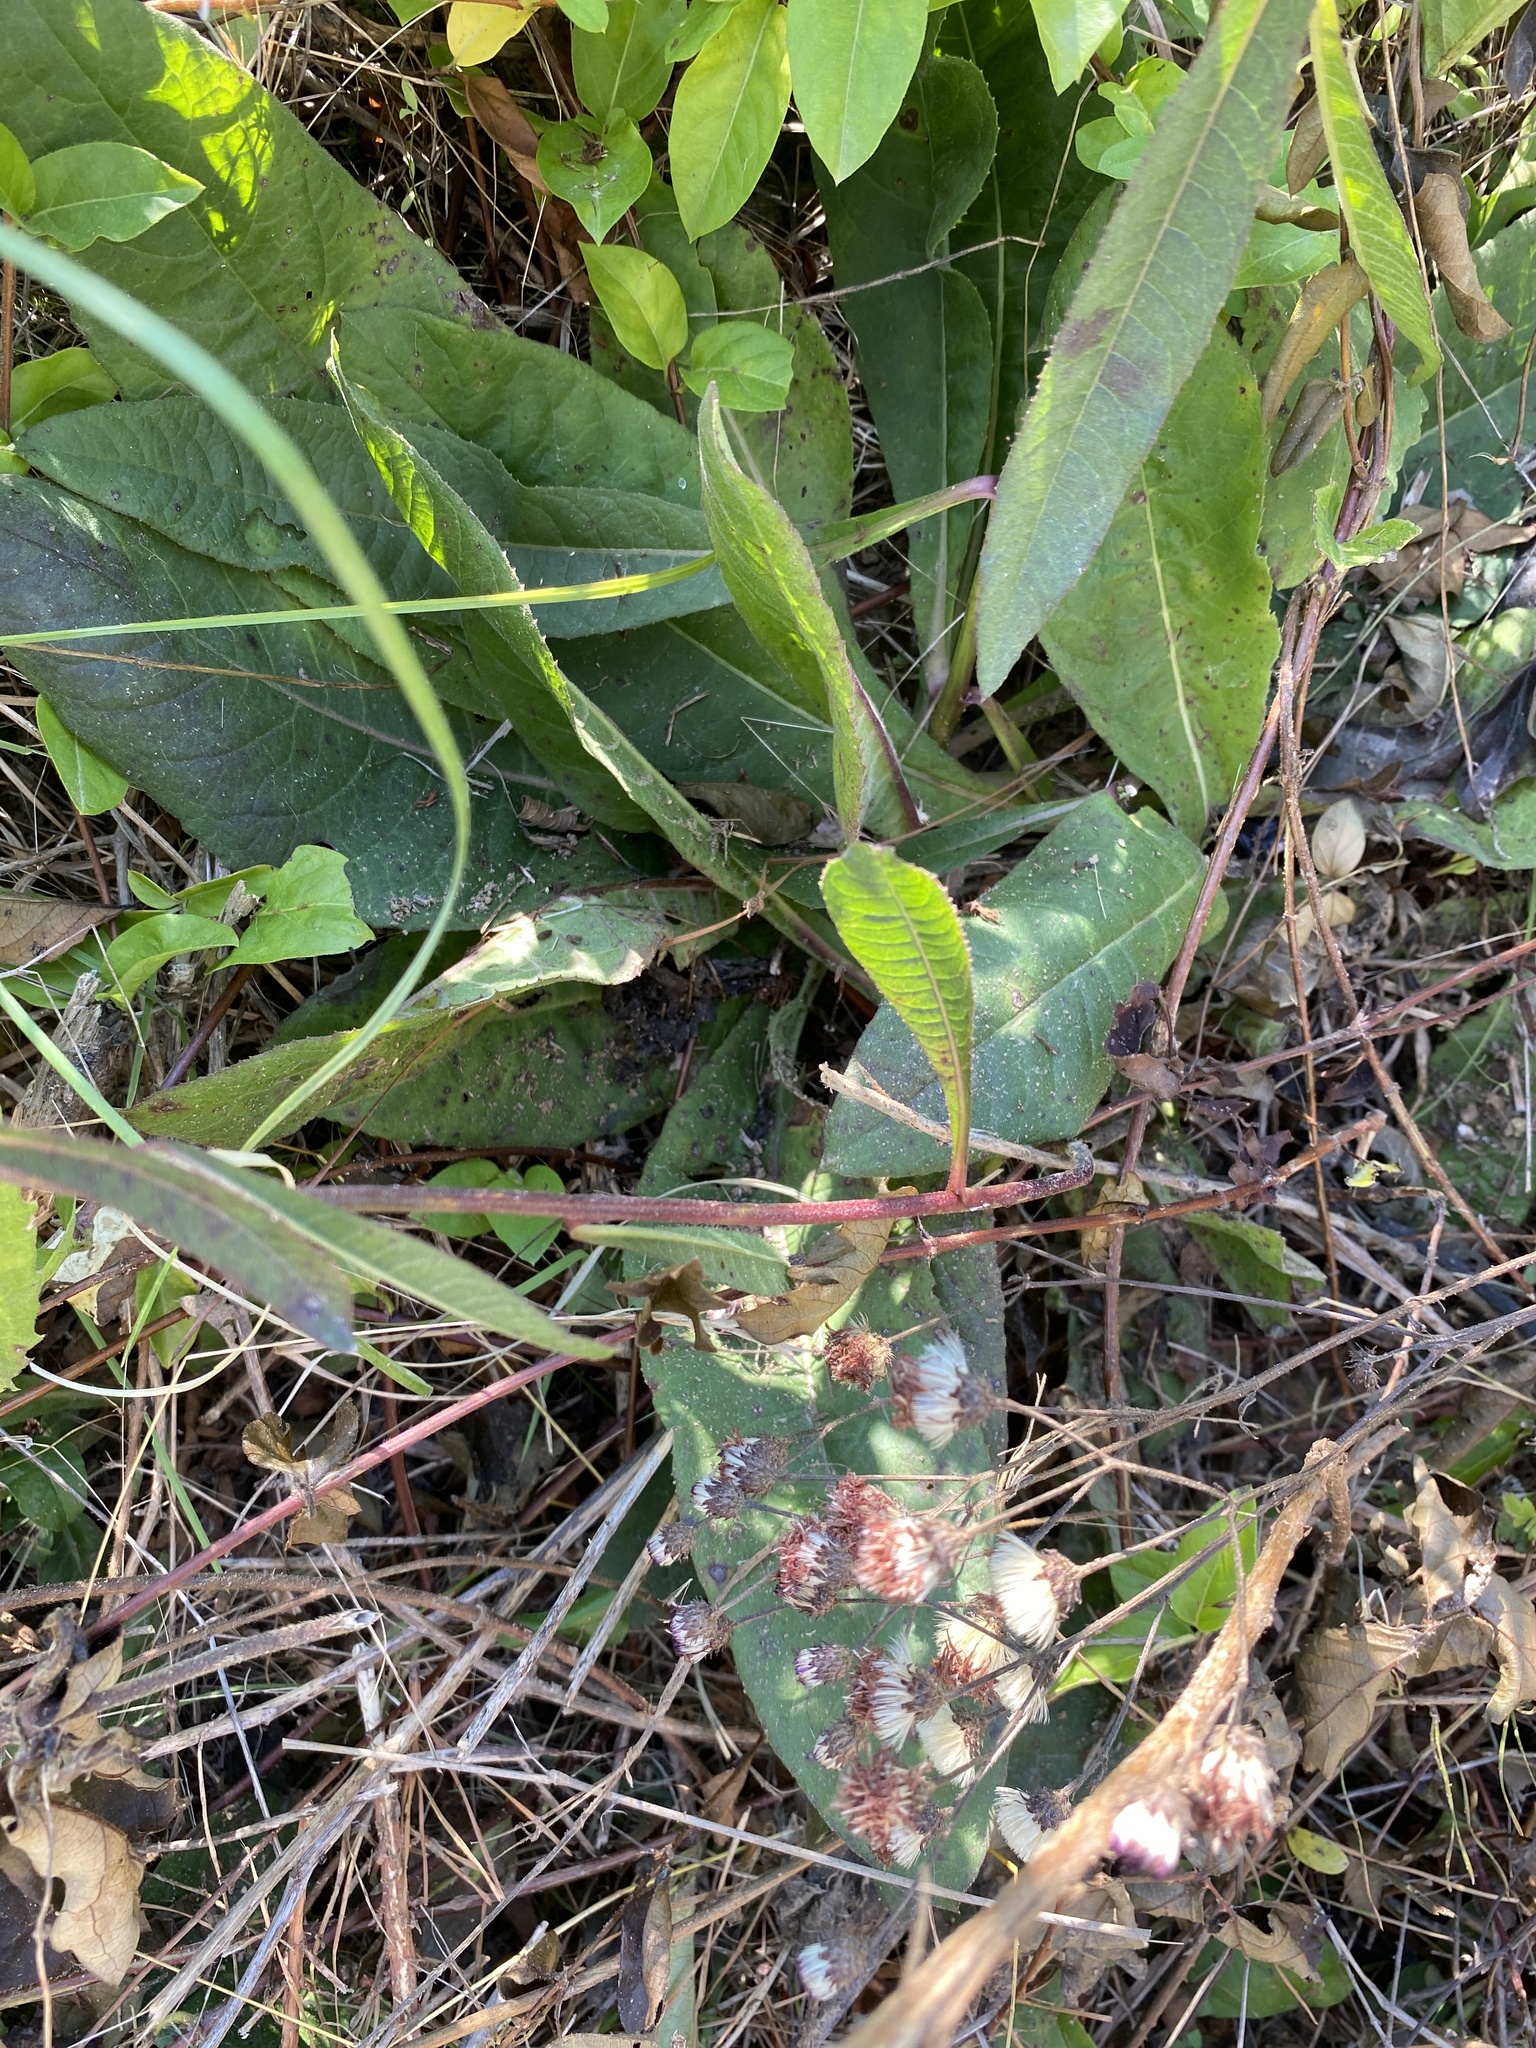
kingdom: Plantae
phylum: Tracheophyta
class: Magnoliopsida
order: Asterales
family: Asteraceae
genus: Vernonia
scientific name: Vernonia acaulis
